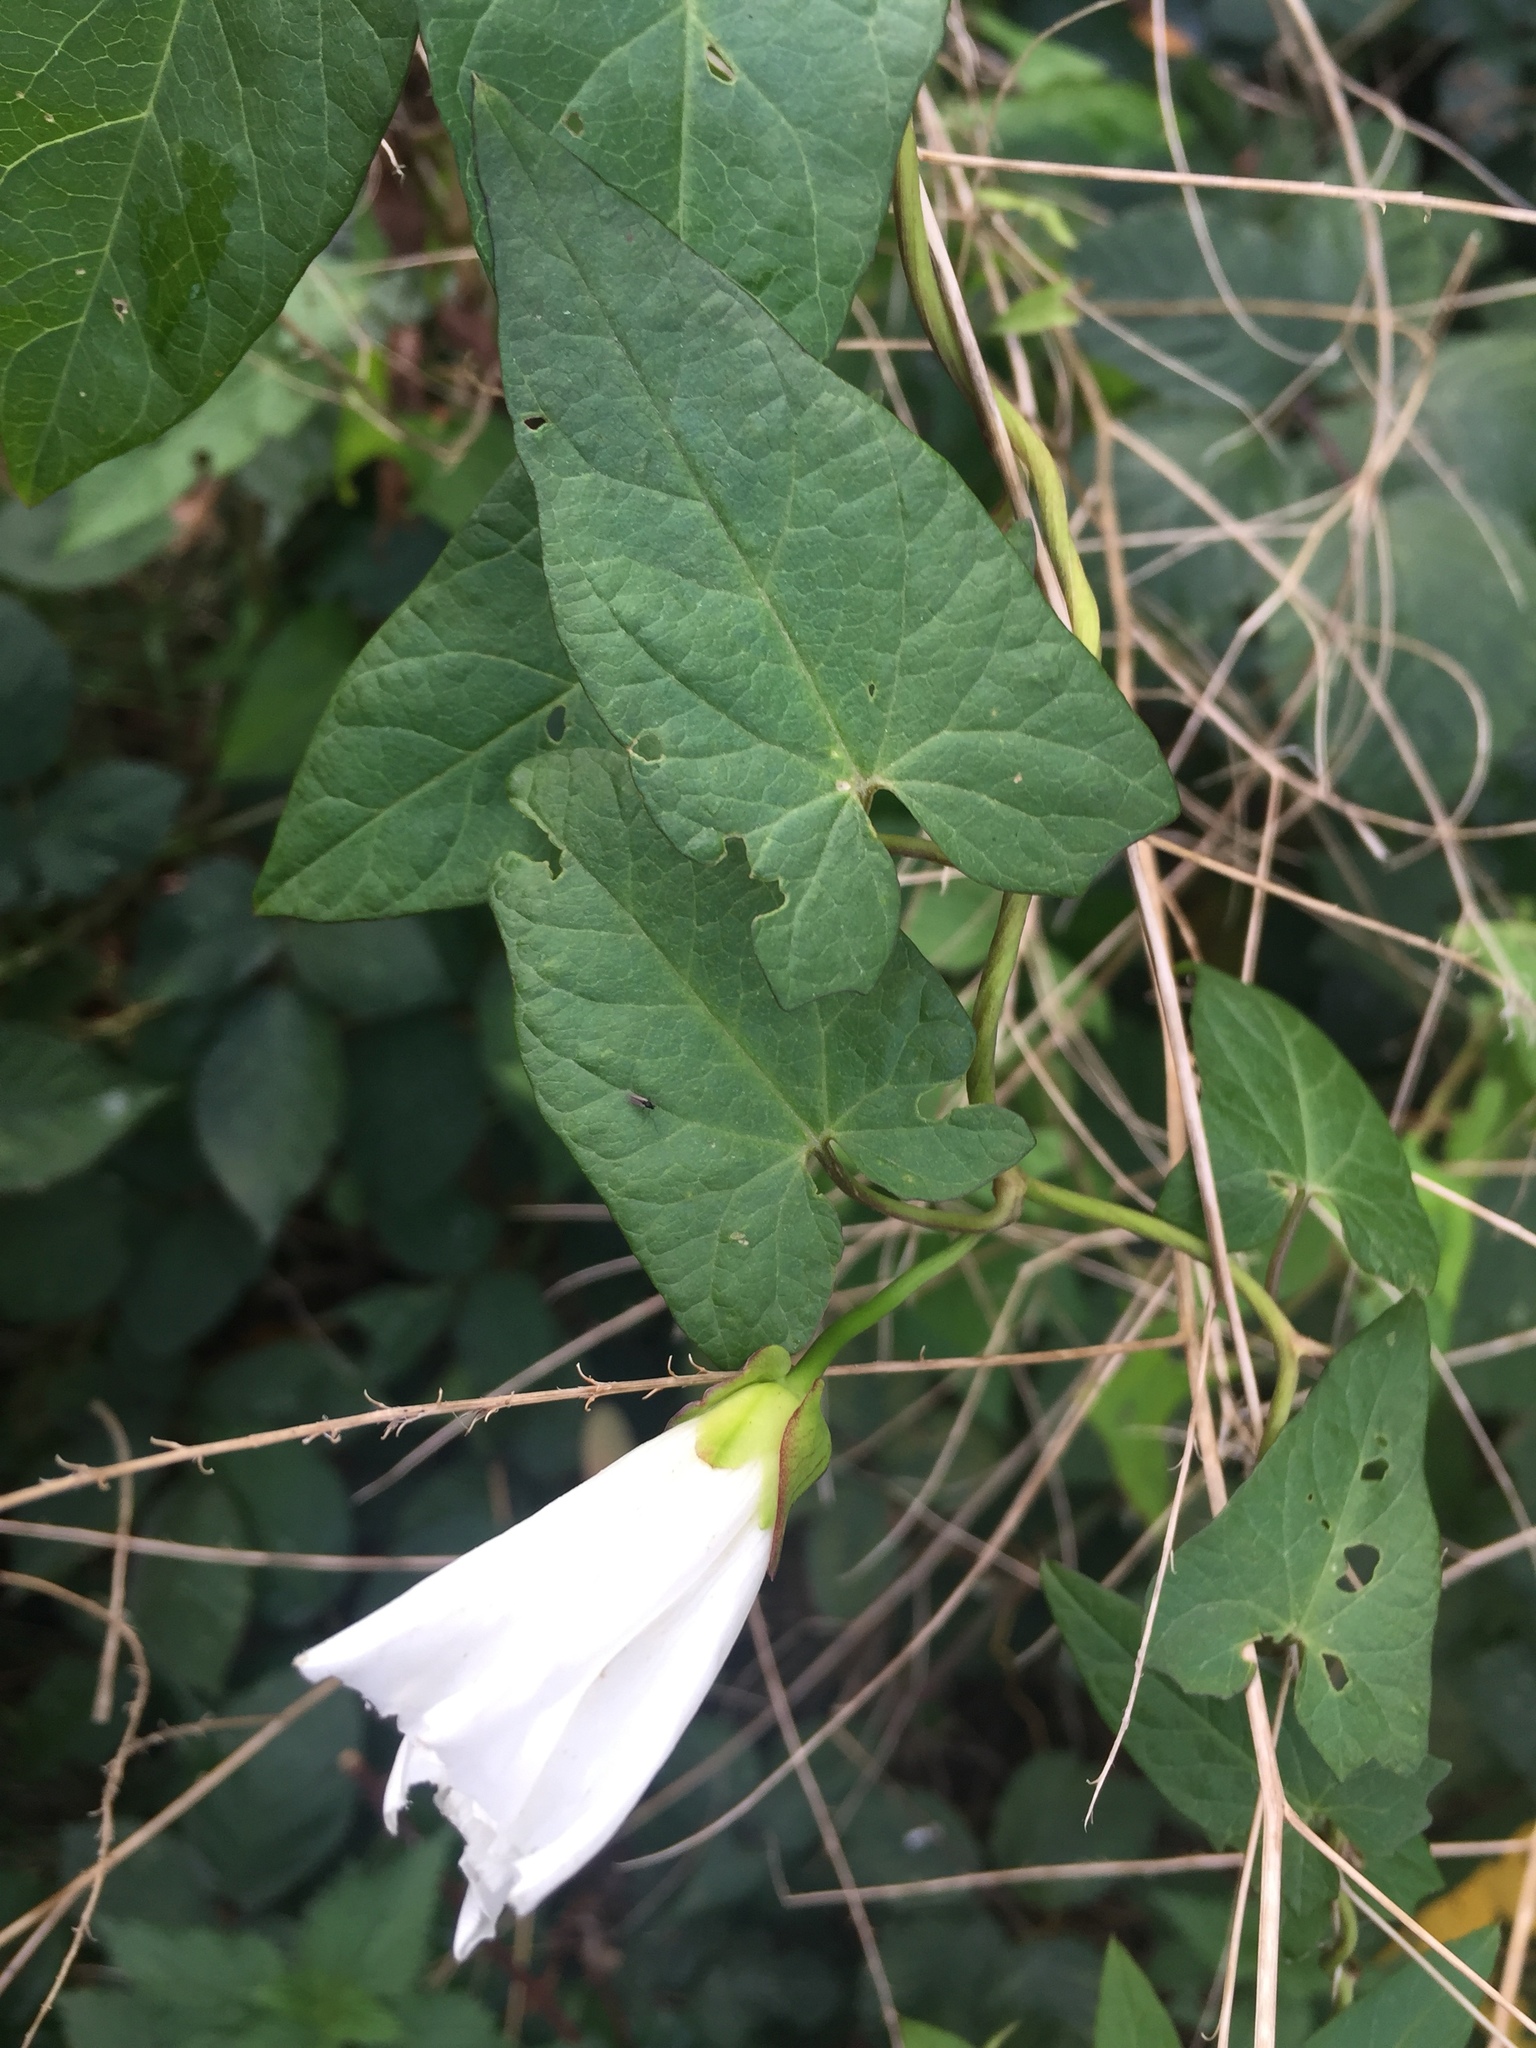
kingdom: Plantae
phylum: Tracheophyta
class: Magnoliopsida
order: Solanales
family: Convolvulaceae
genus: Calystegia
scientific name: Calystegia sepium
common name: Hedge bindweed
